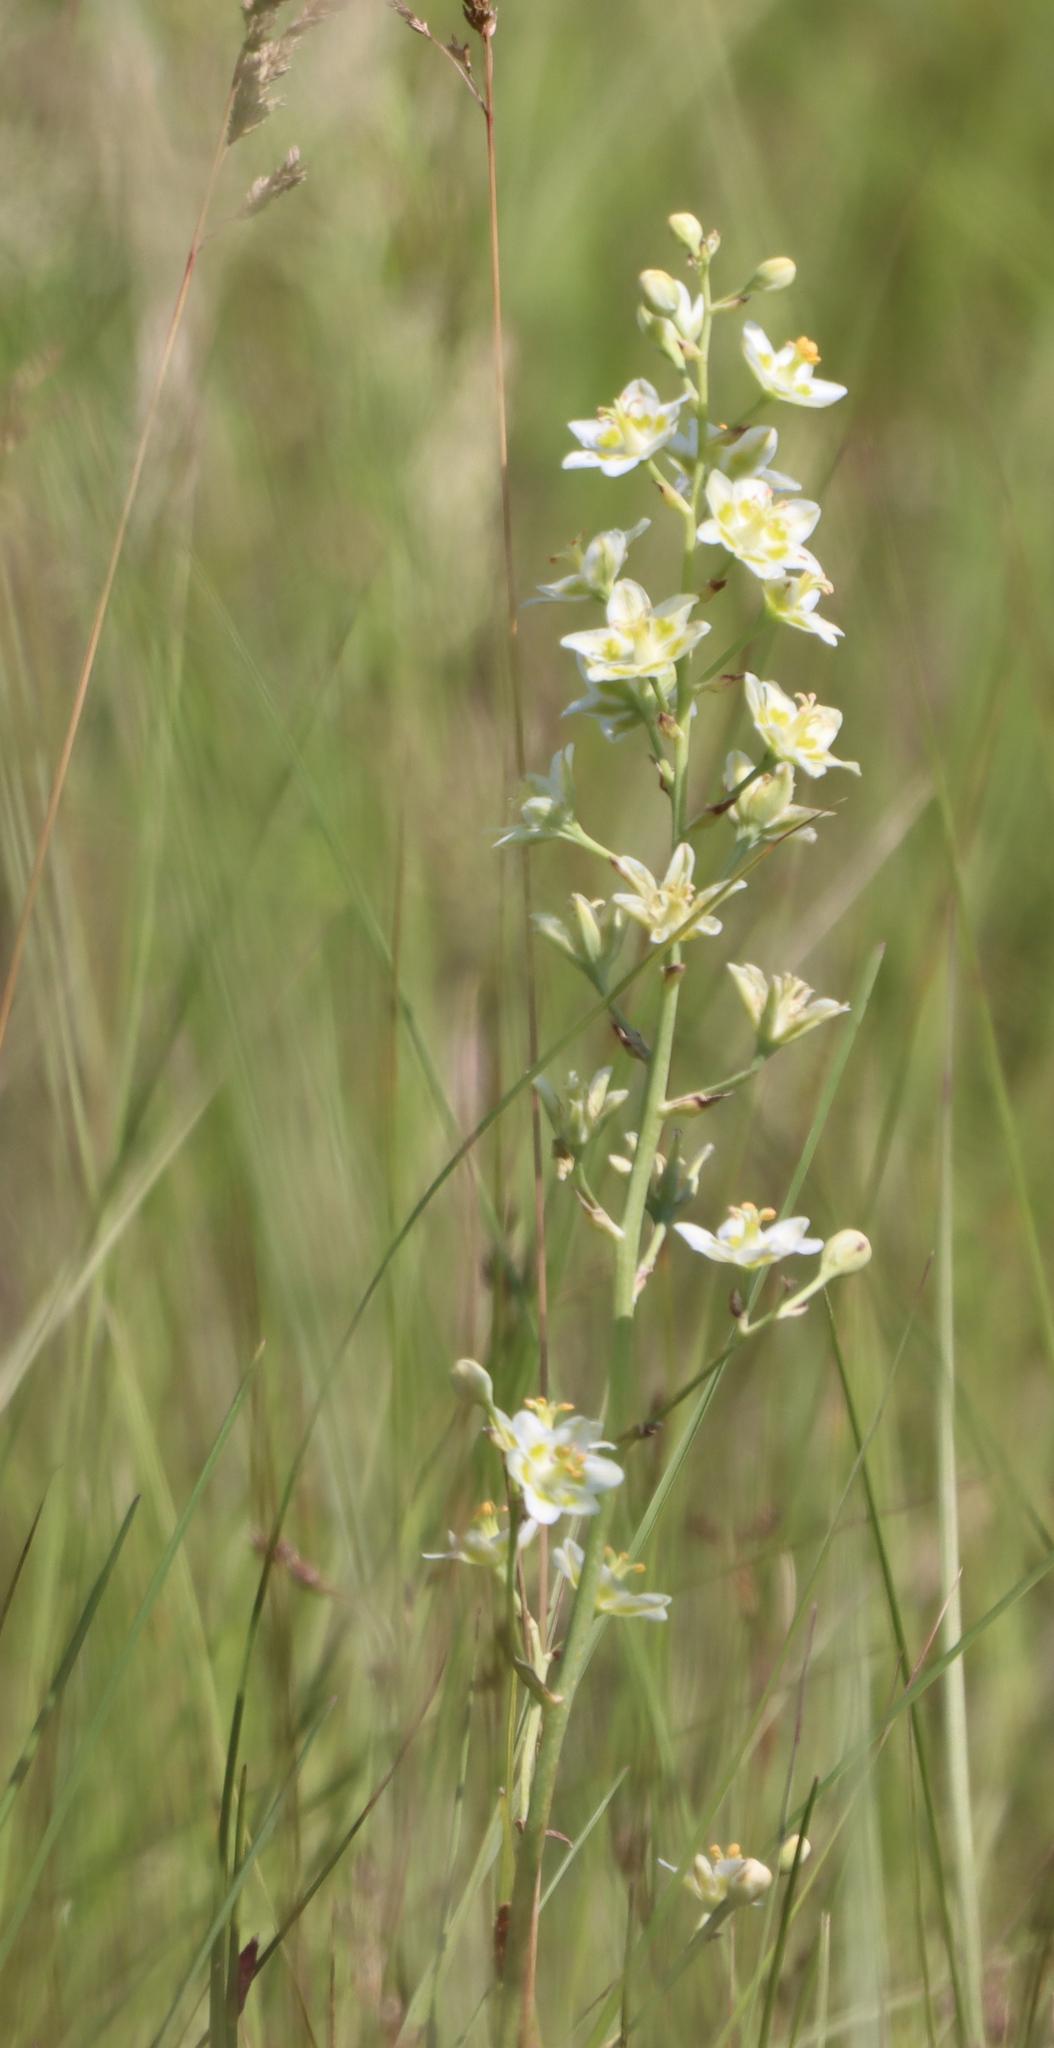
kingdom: Plantae
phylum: Tracheophyta
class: Liliopsida
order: Liliales
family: Melanthiaceae
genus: Anticlea
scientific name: Anticlea elegans
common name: Mountain death camas
